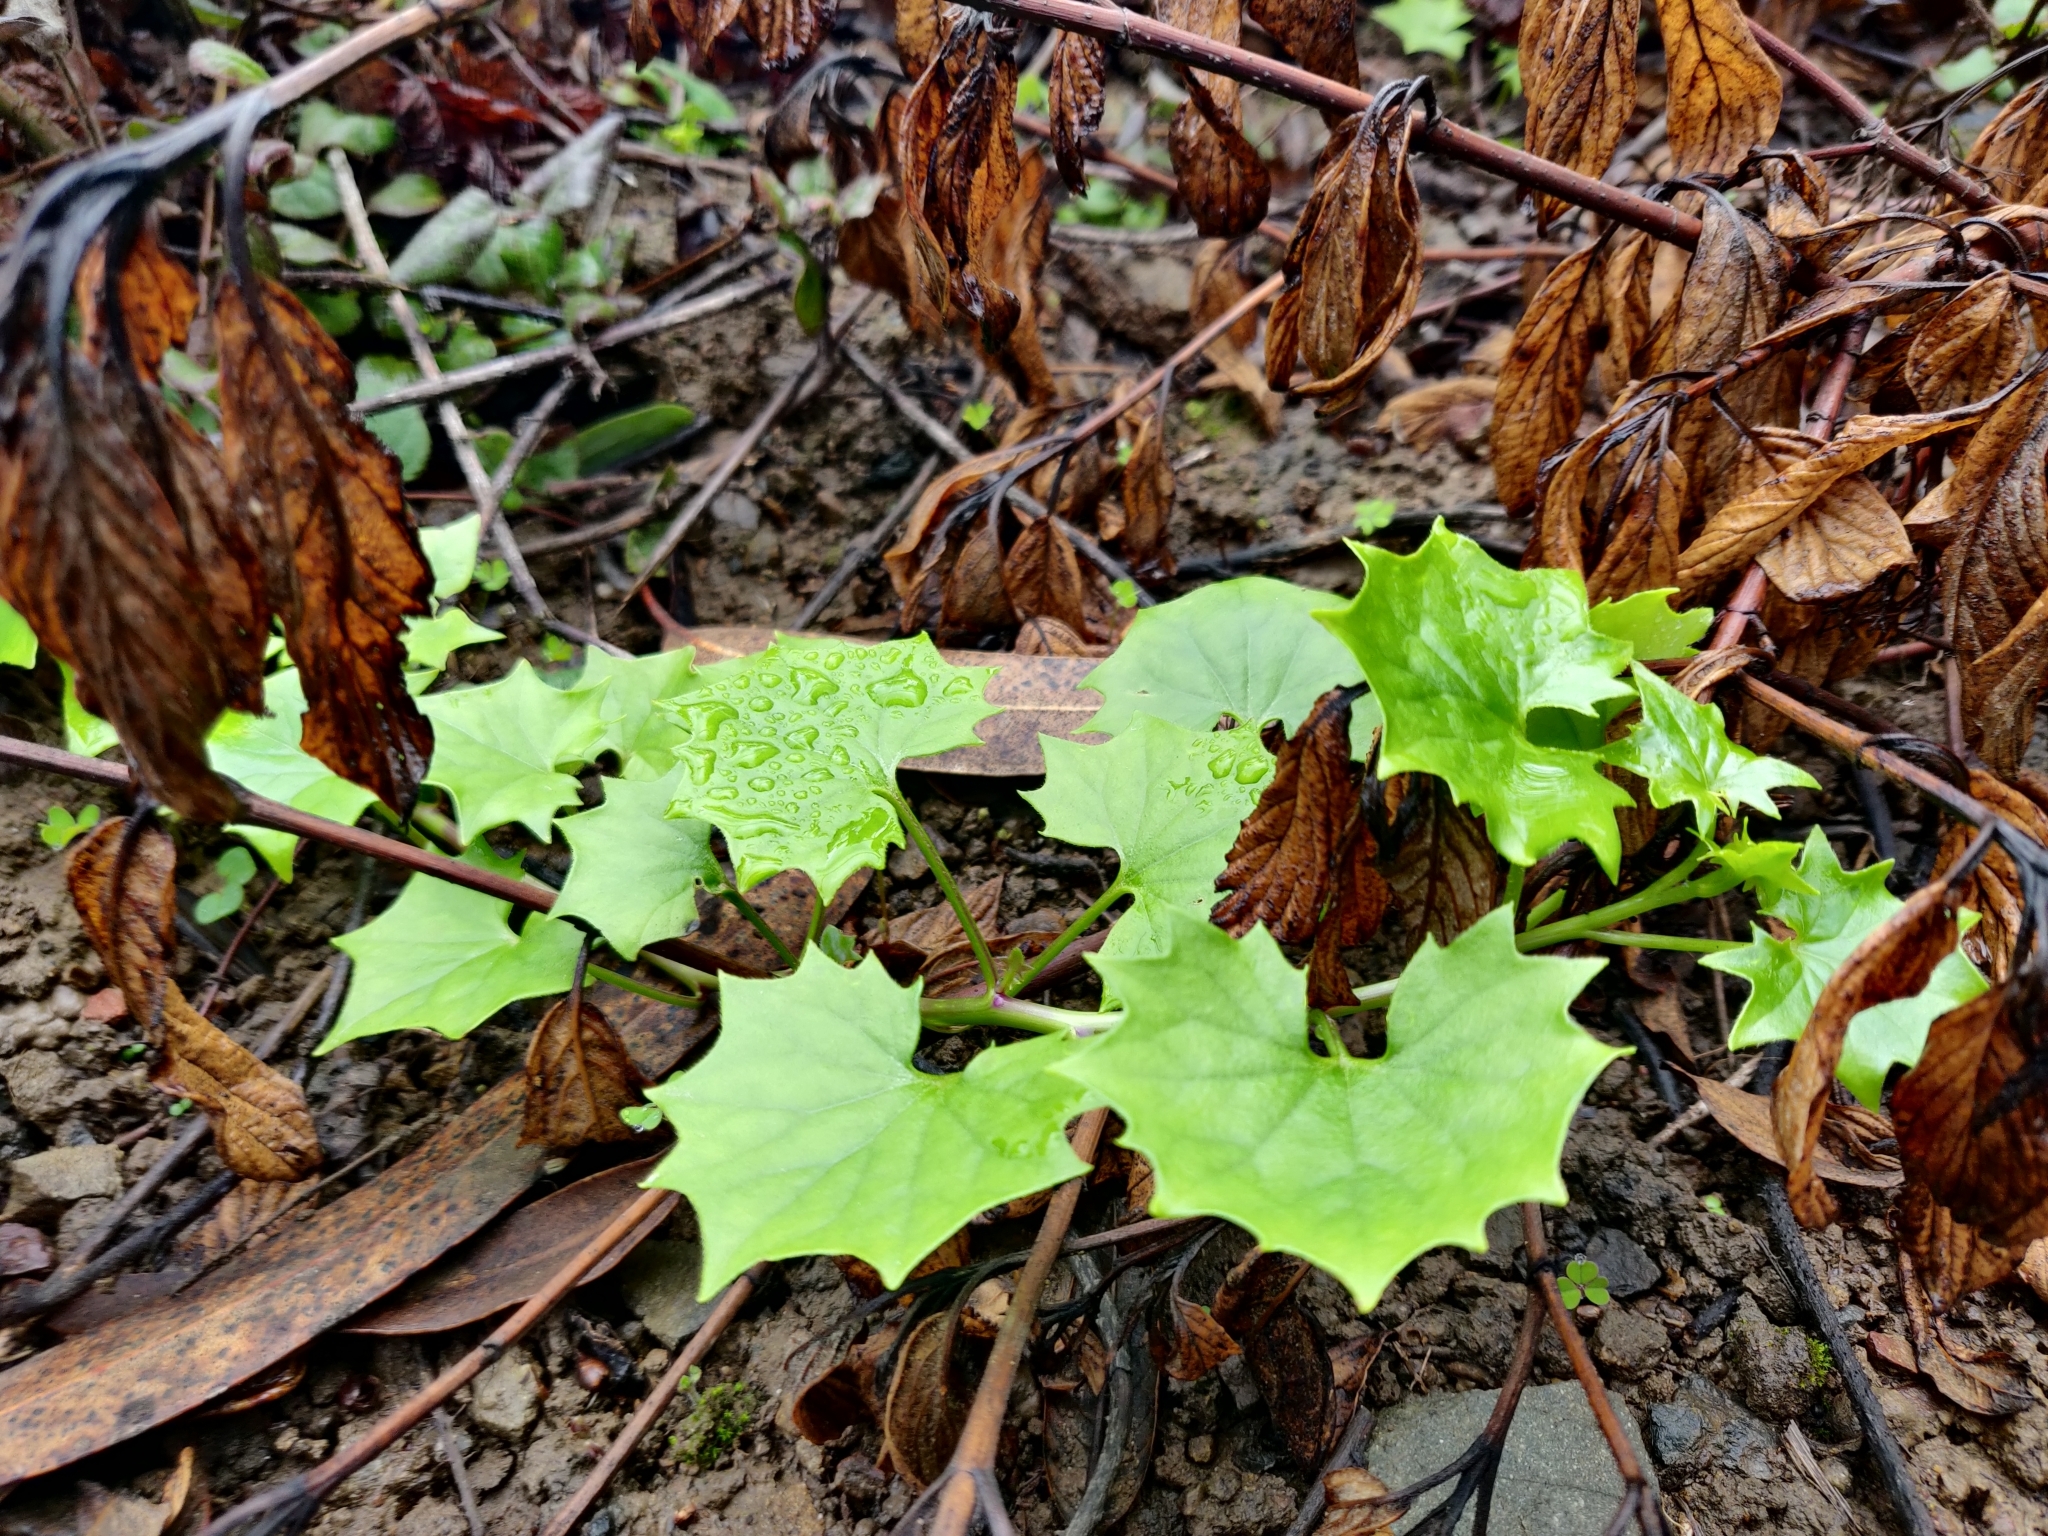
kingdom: Plantae
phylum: Tracheophyta
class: Magnoliopsida
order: Asterales
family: Asteraceae
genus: Delairea
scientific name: Delairea odorata
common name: Cape-ivy
